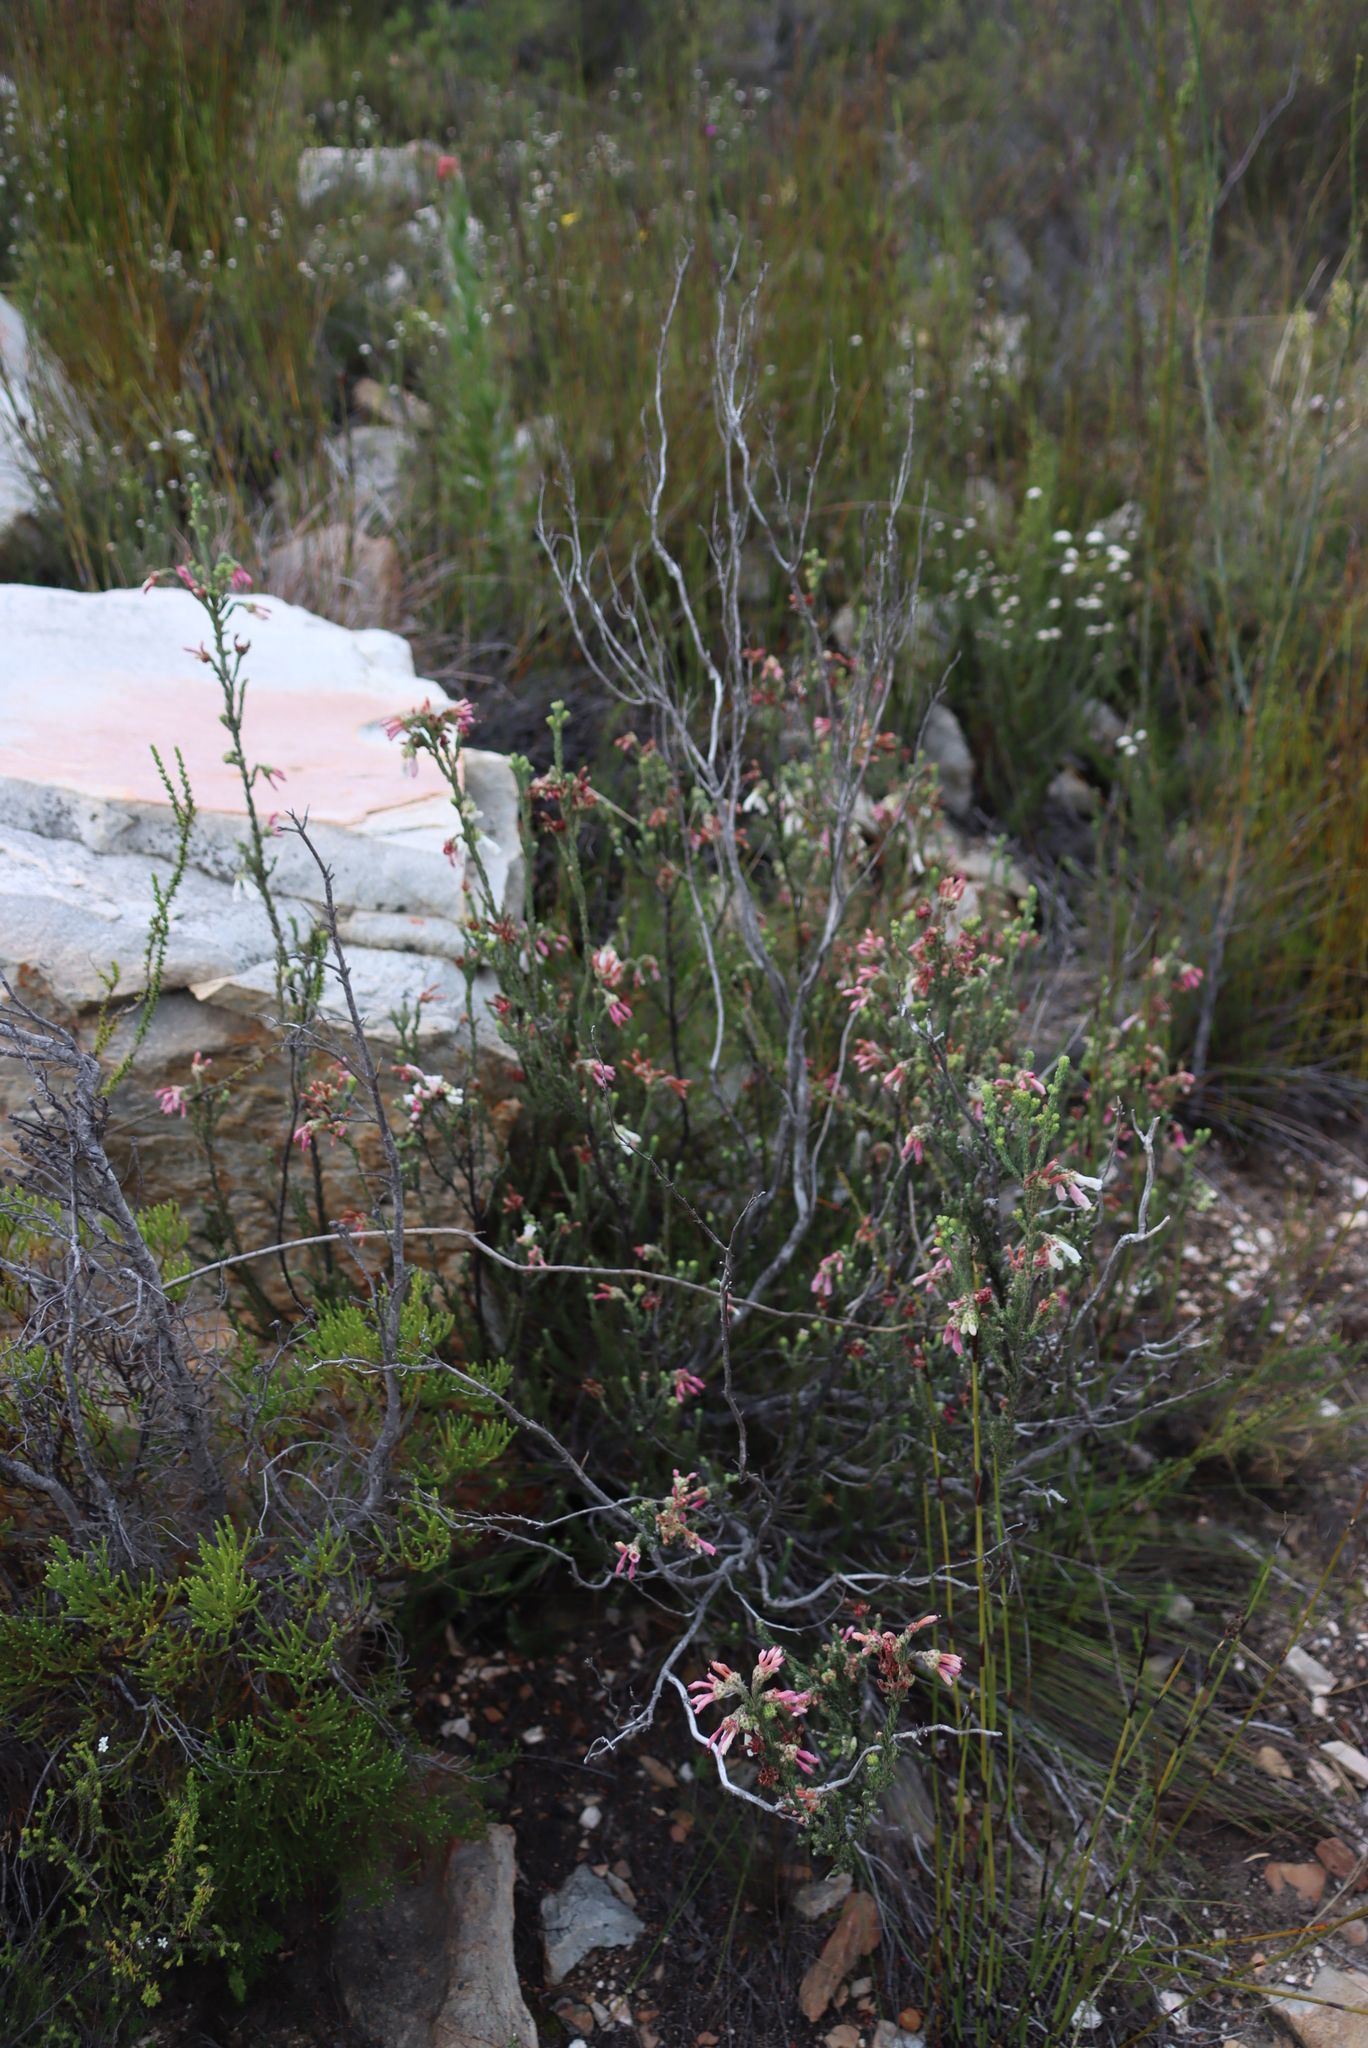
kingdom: Plantae
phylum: Tracheophyta
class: Magnoliopsida
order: Ericales
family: Ericaceae
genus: Erica
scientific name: Erica pectinifolia
